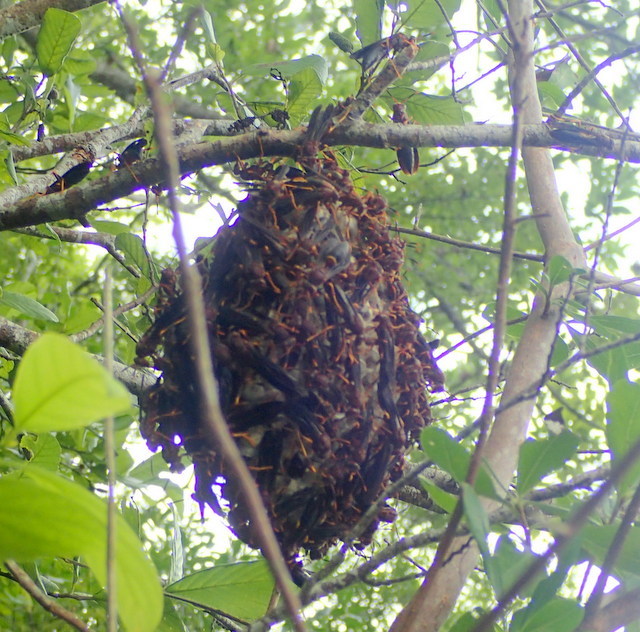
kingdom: Animalia
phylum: Arthropoda
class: Insecta
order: Hymenoptera
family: Eumenidae
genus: Polistes
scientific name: Polistes annularis
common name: Ringed paper wasp
